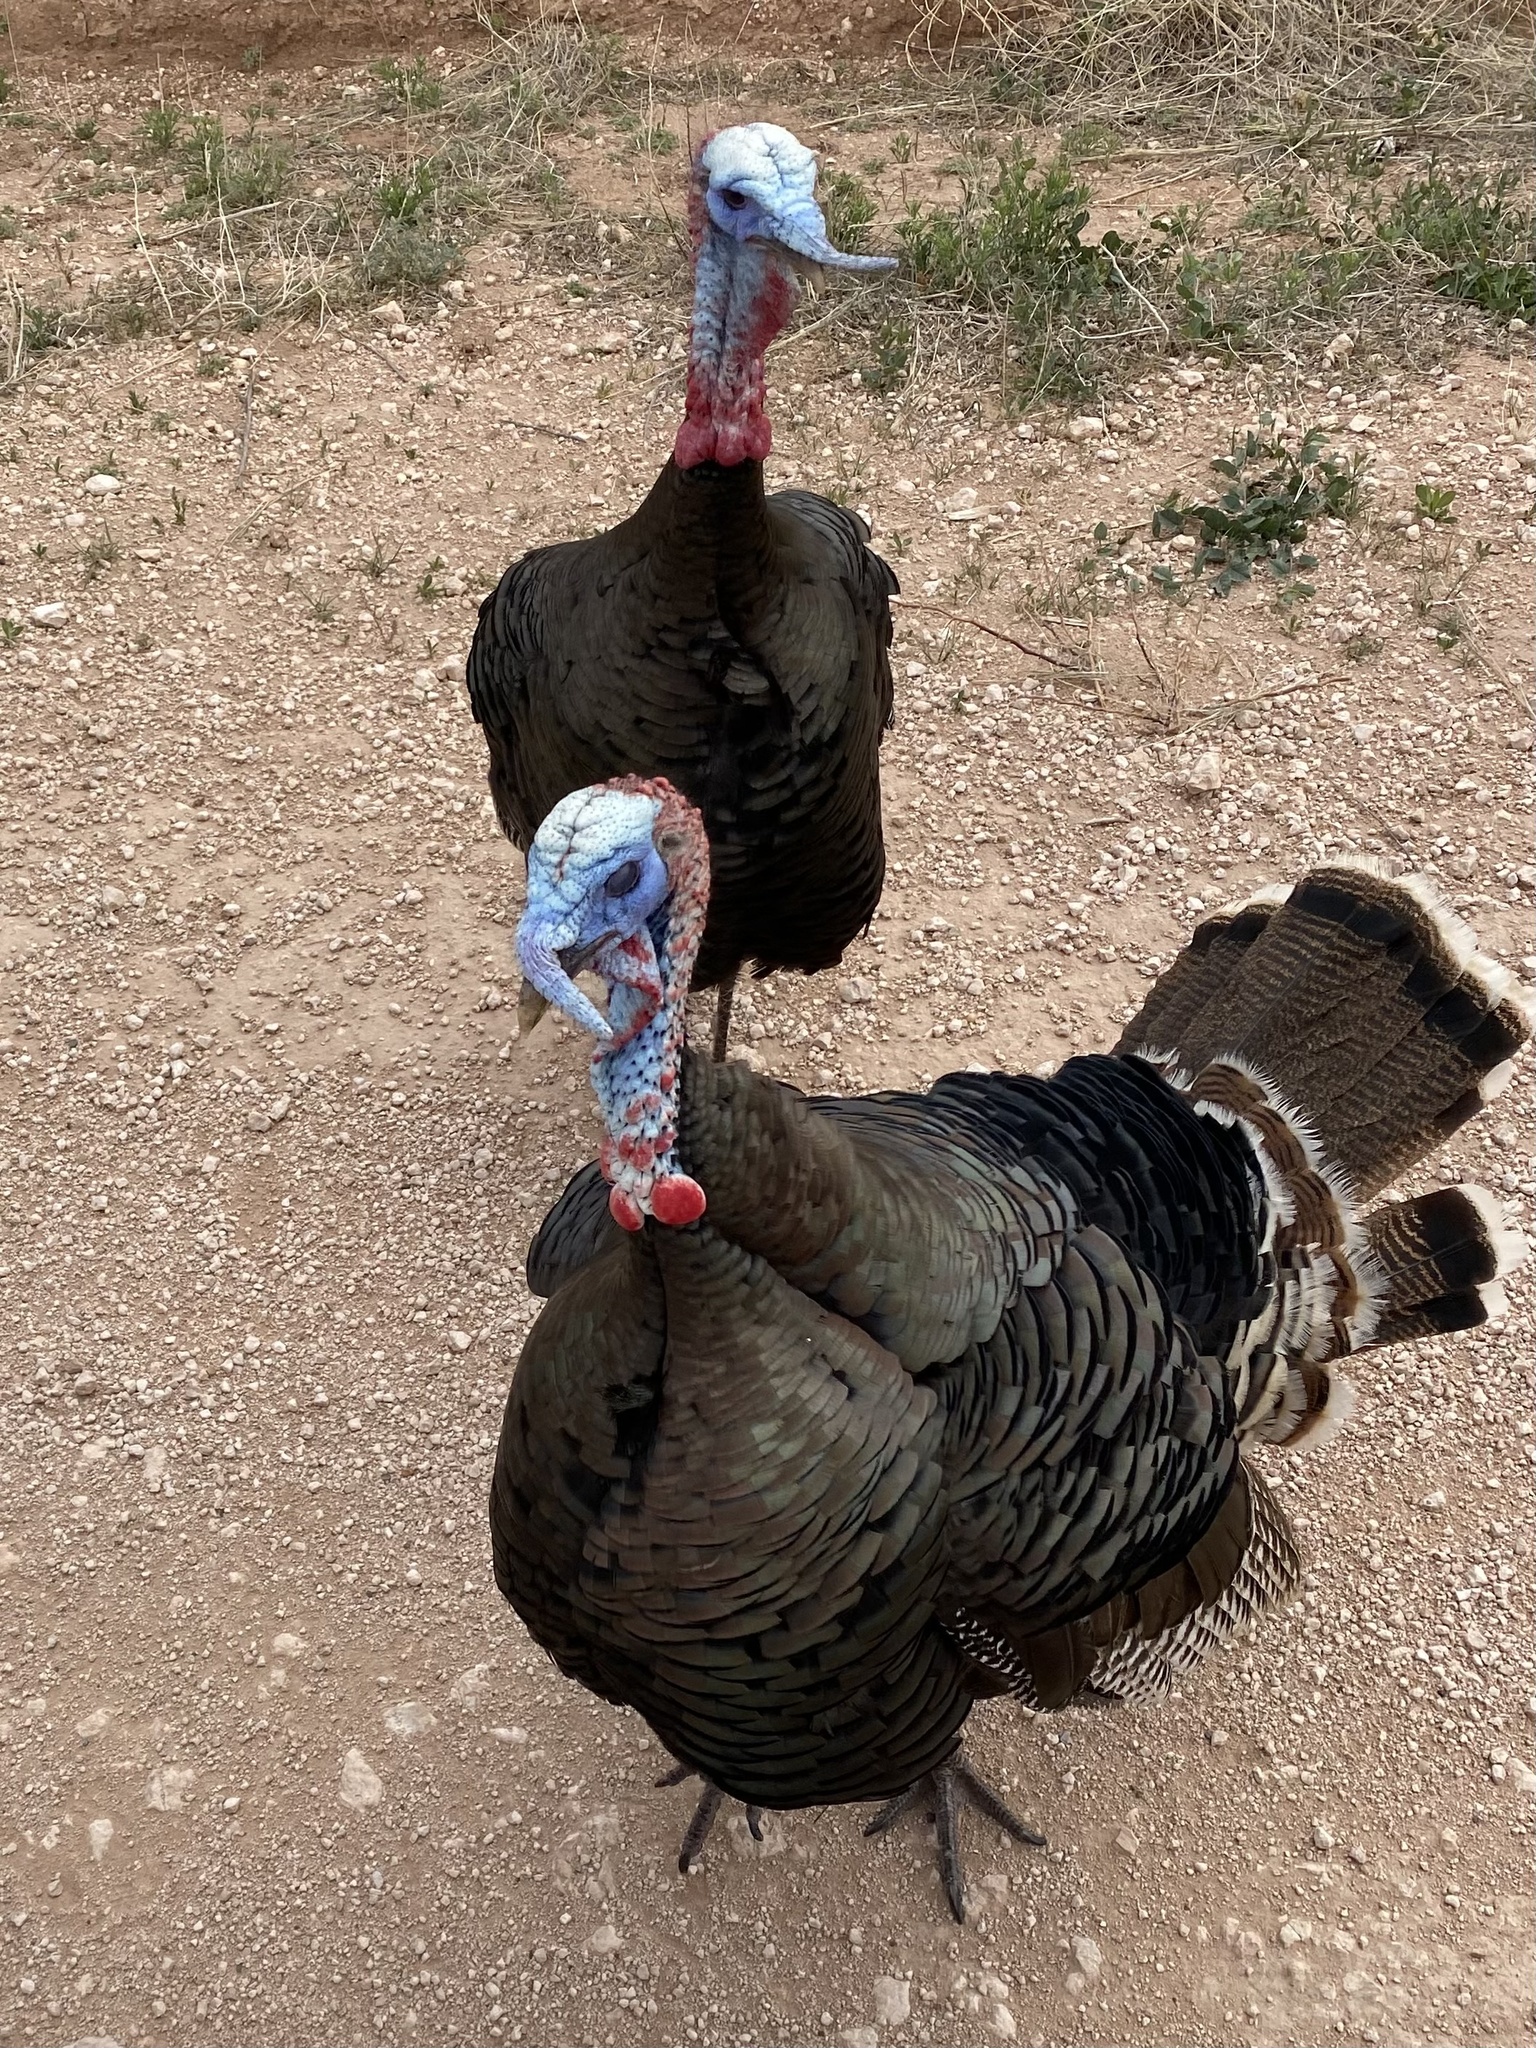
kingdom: Animalia
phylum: Chordata
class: Aves
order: Galliformes
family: Phasianidae
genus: Meleagris
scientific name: Meleagris gallopavo
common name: Wild turkey
